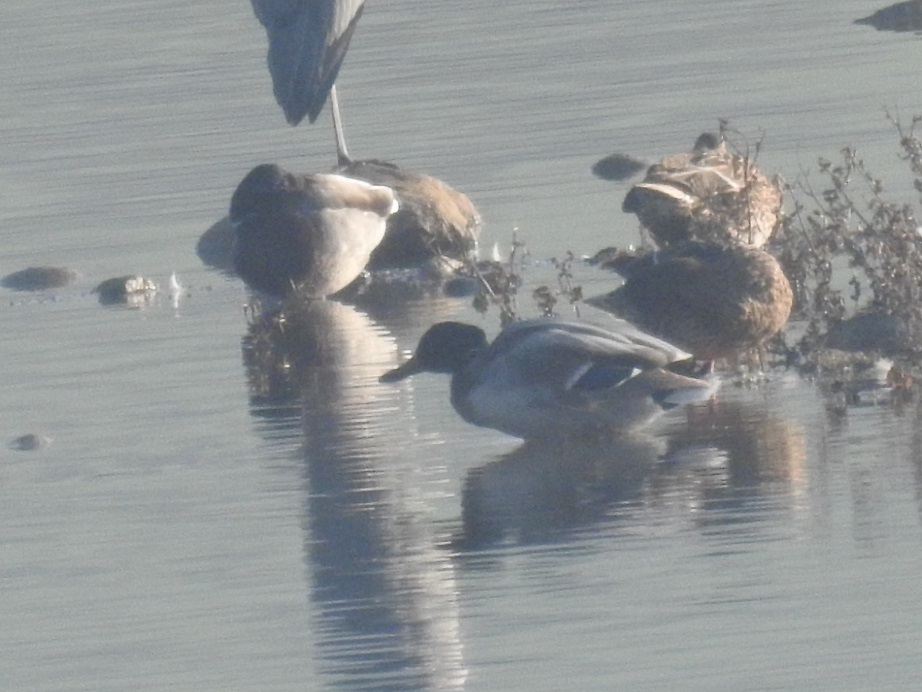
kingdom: Animalia
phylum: Chordata
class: Aves
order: Anseriformes
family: Anatidae
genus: Anas
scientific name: Anas platyrhynchos
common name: Mallard
